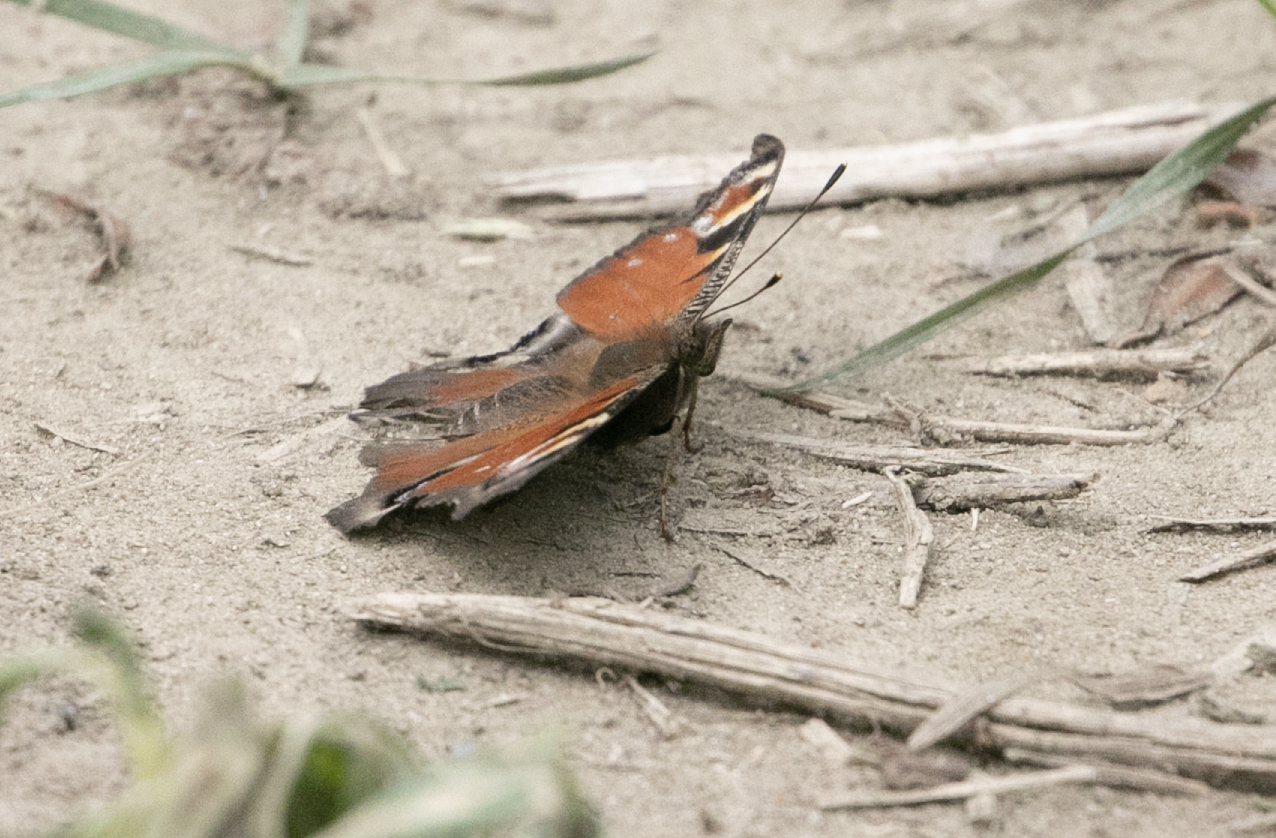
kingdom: Animalia
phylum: Arthropoda
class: Insecta
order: Lepidoptera
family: Nymphalidae
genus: Aglais
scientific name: Aglais io
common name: Peacock
